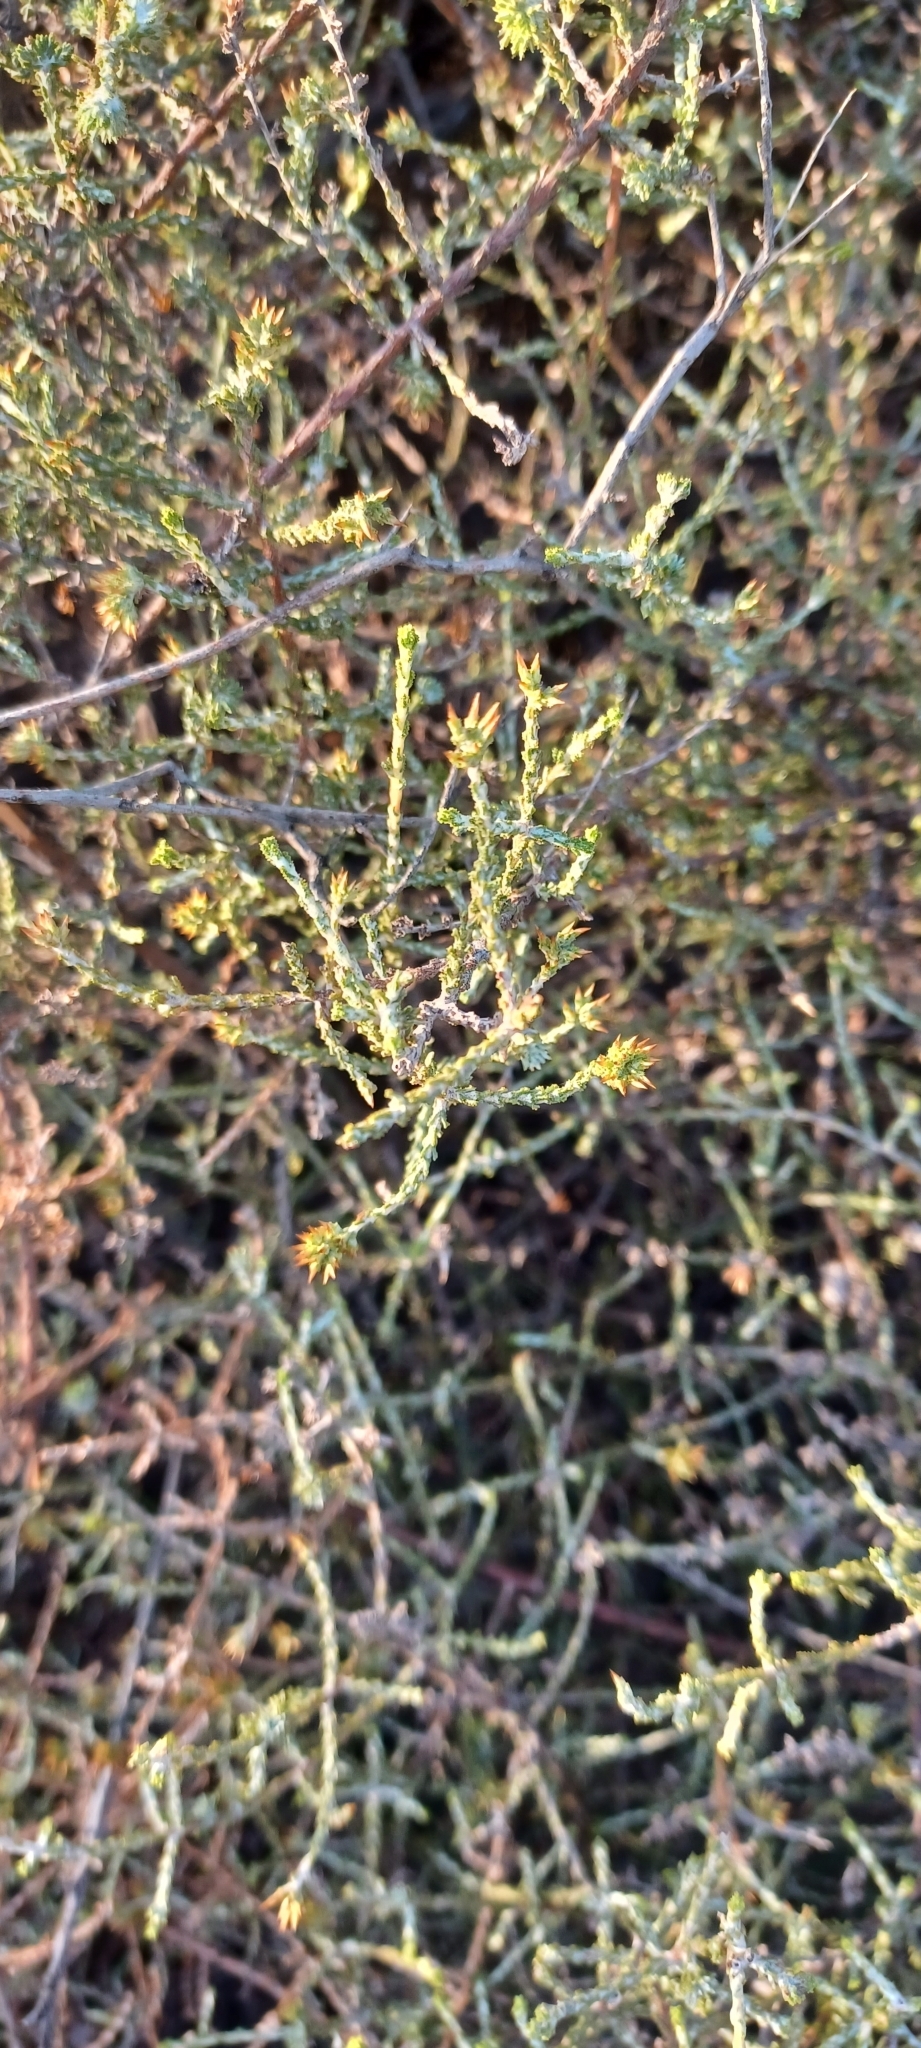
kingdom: Plantae
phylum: Tracheophyta
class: Magnoliopsida
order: Asterales
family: Asteraceae
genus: Myrovernix
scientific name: Myrovernix intricata
